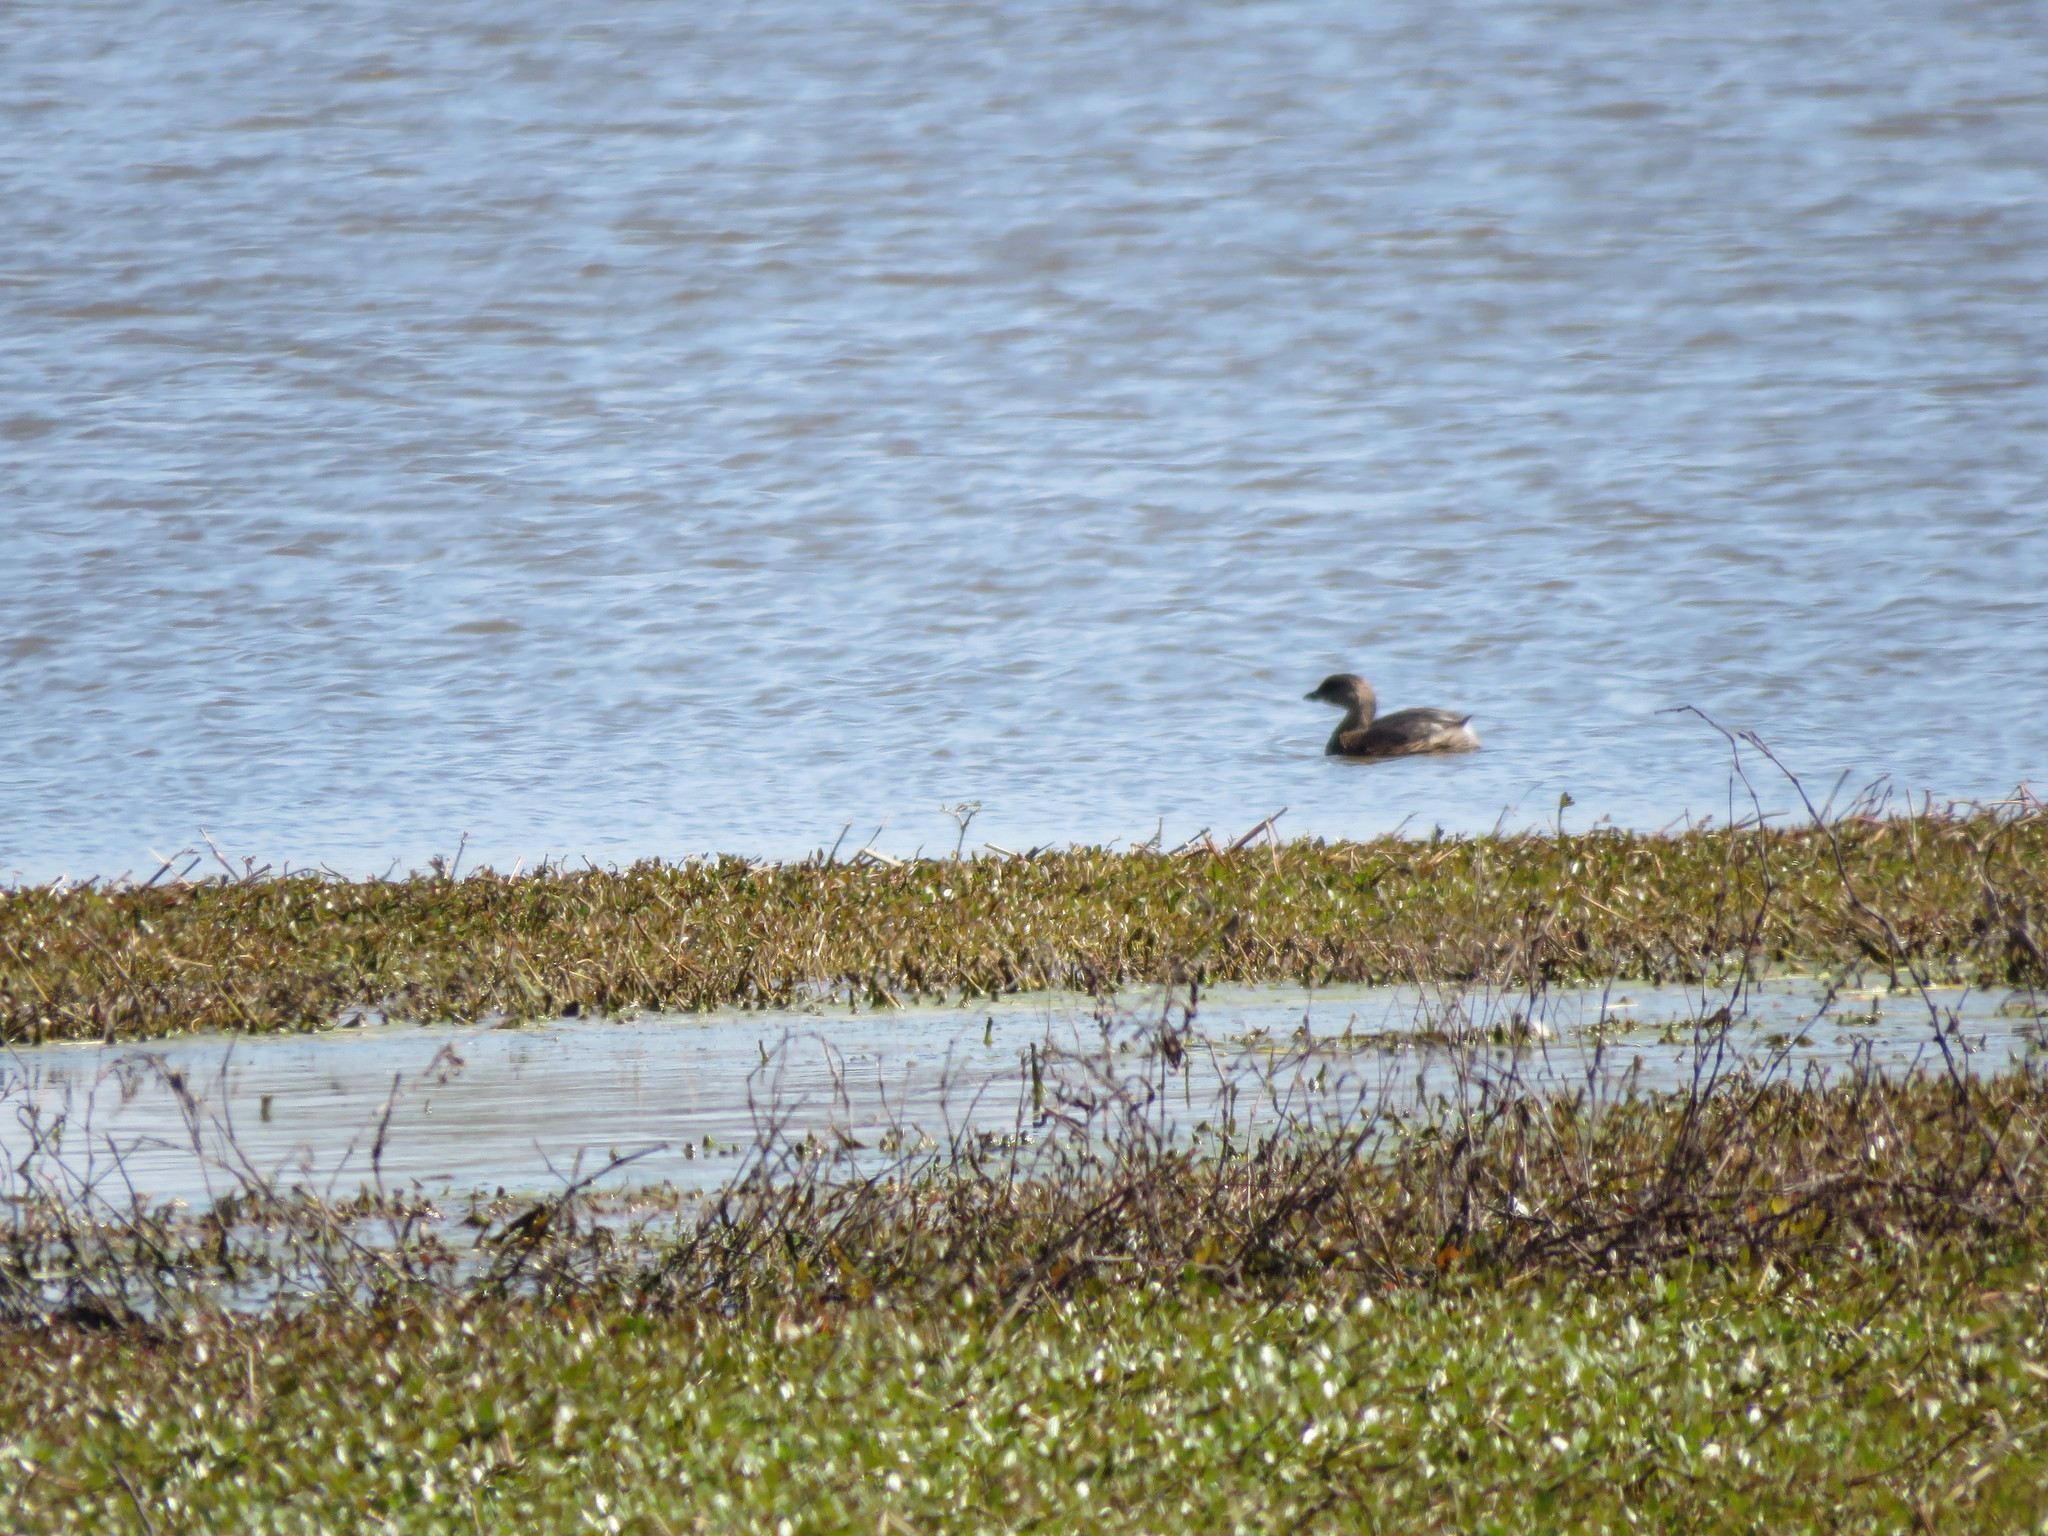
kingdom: Animalia
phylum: Chordata
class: Aves
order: Podicipediformes
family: Podicipedidae
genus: Podilymbus
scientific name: Podilymbus podiceps
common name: Pied-billed grebe
